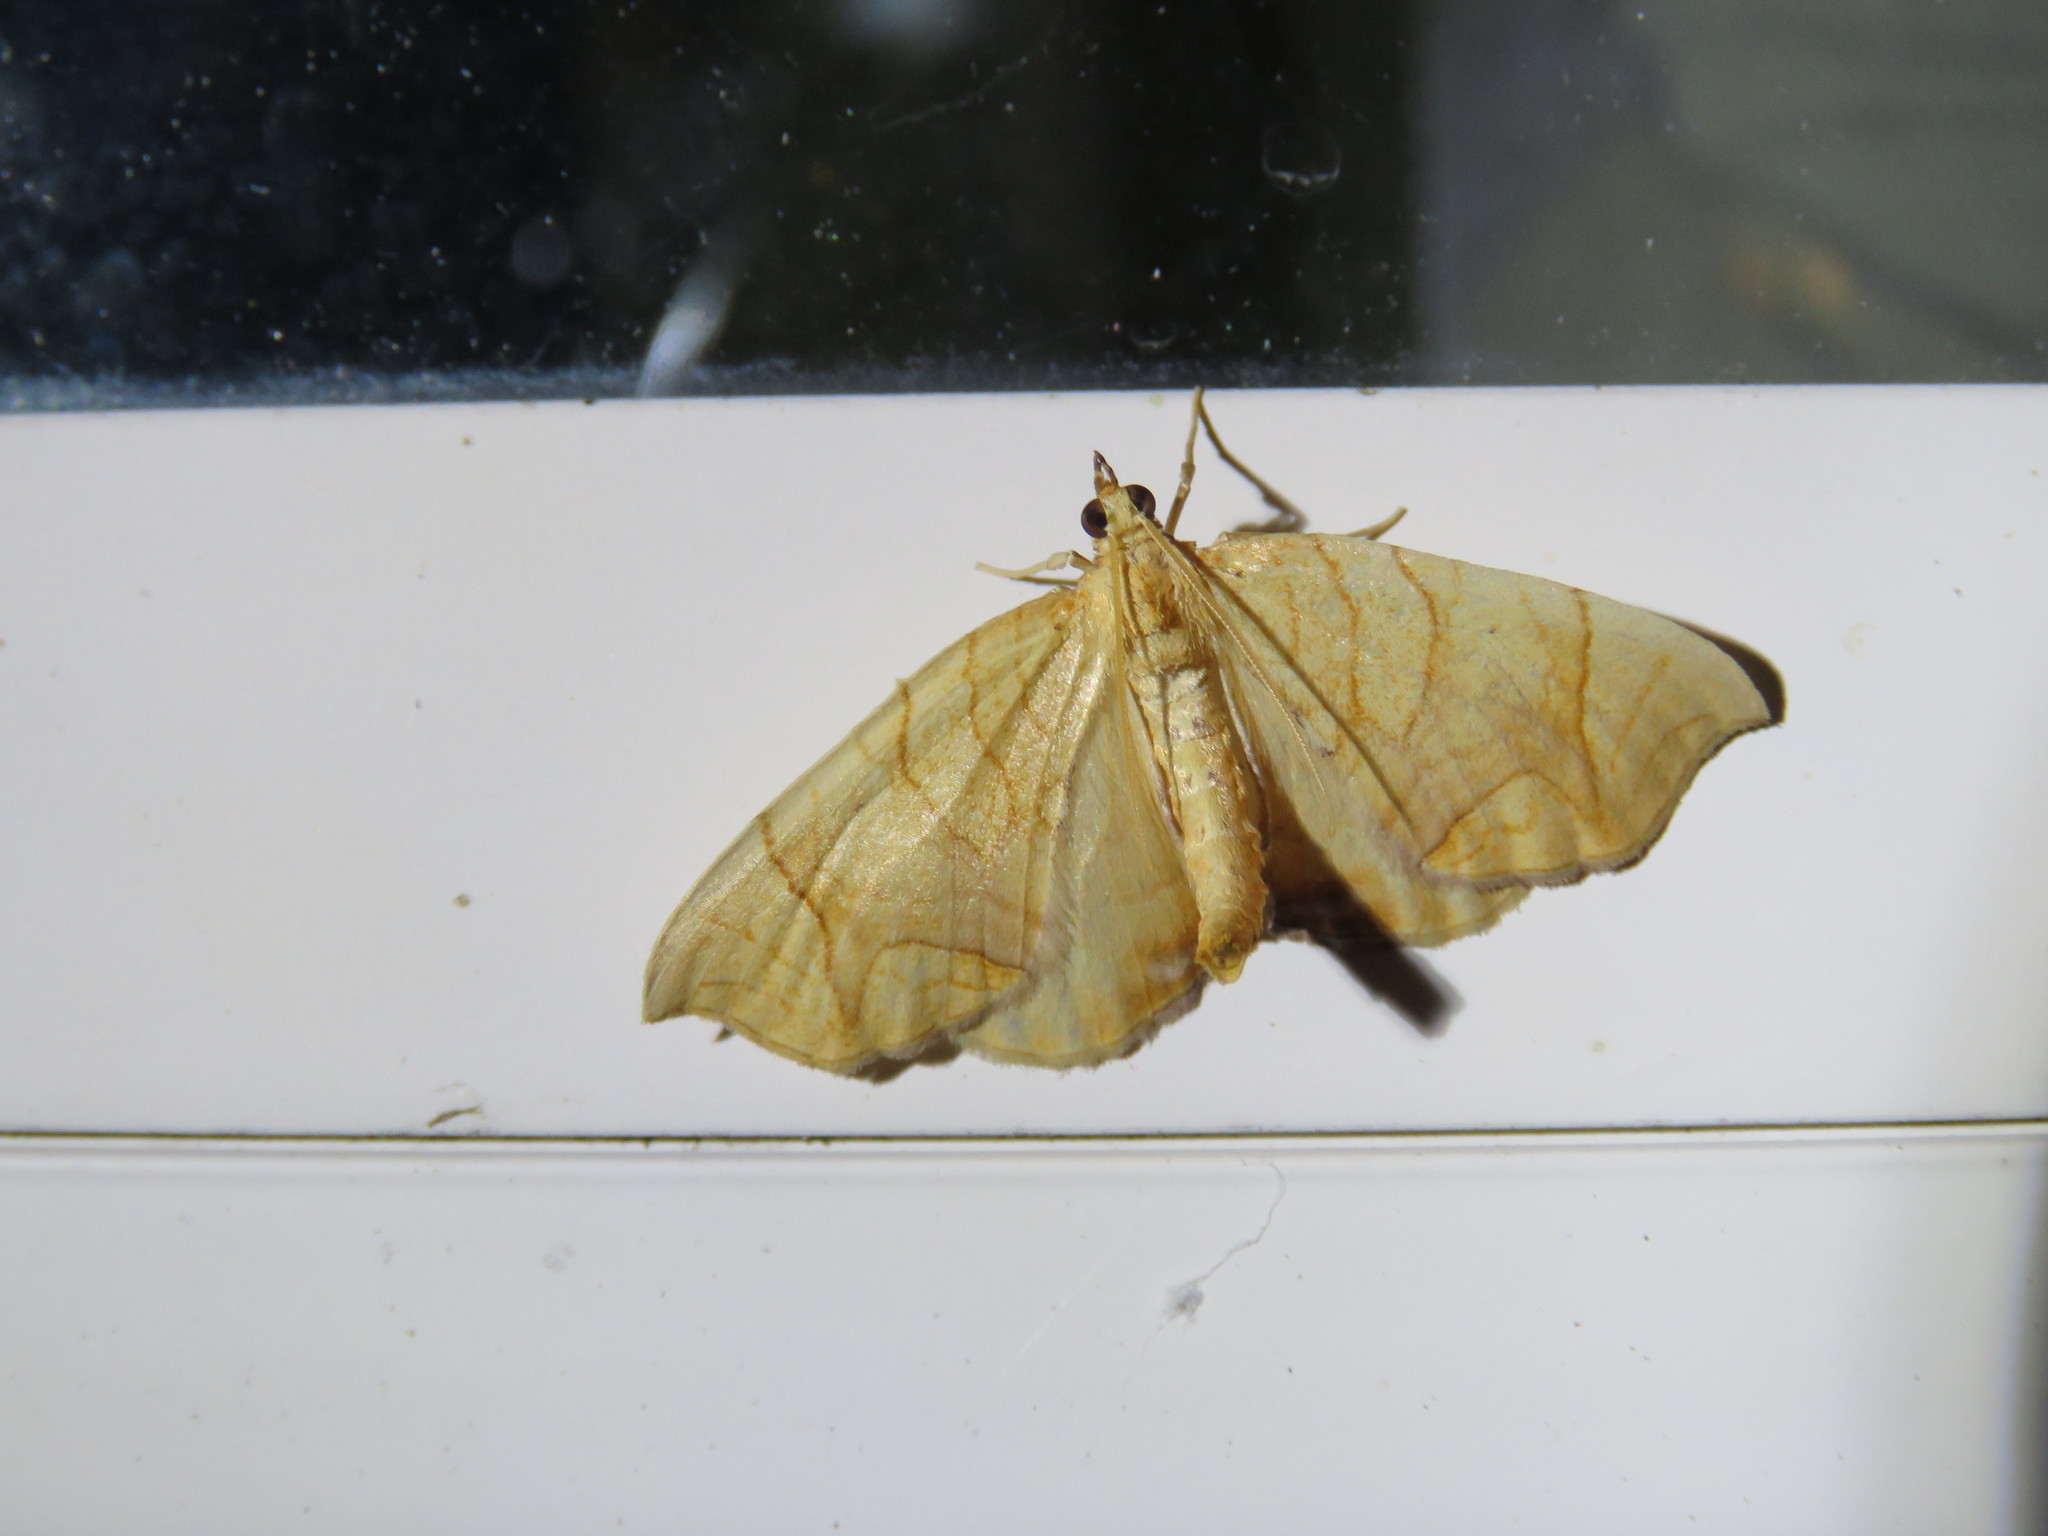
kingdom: Animalia
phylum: Arthropoda
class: Insecta
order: Lepidoptera
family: Geometridae
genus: Eulithis
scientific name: Eulithis
